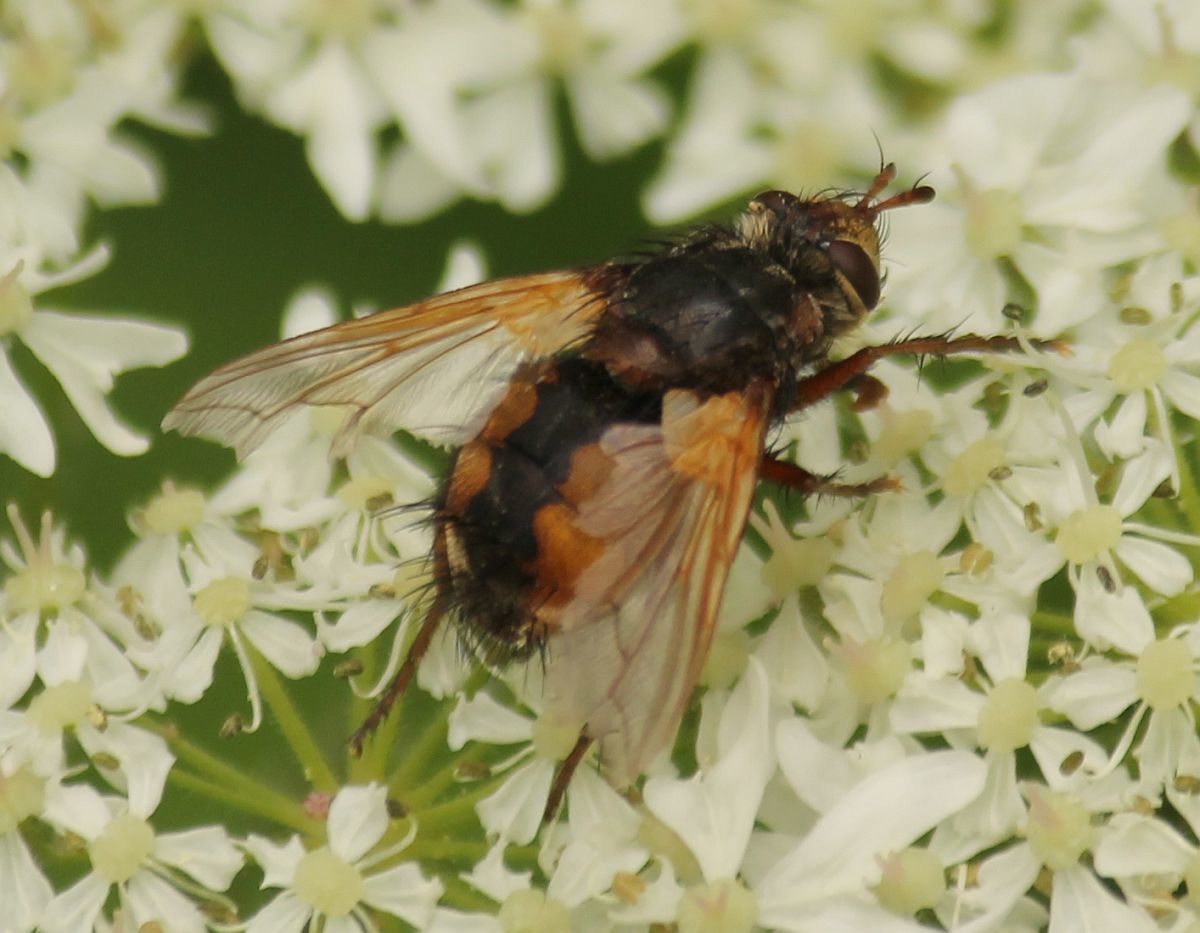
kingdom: Animalia
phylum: Arthropoda
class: Insecta
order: Diptera
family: Tachinidae
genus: Tachina
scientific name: Tachina fera
